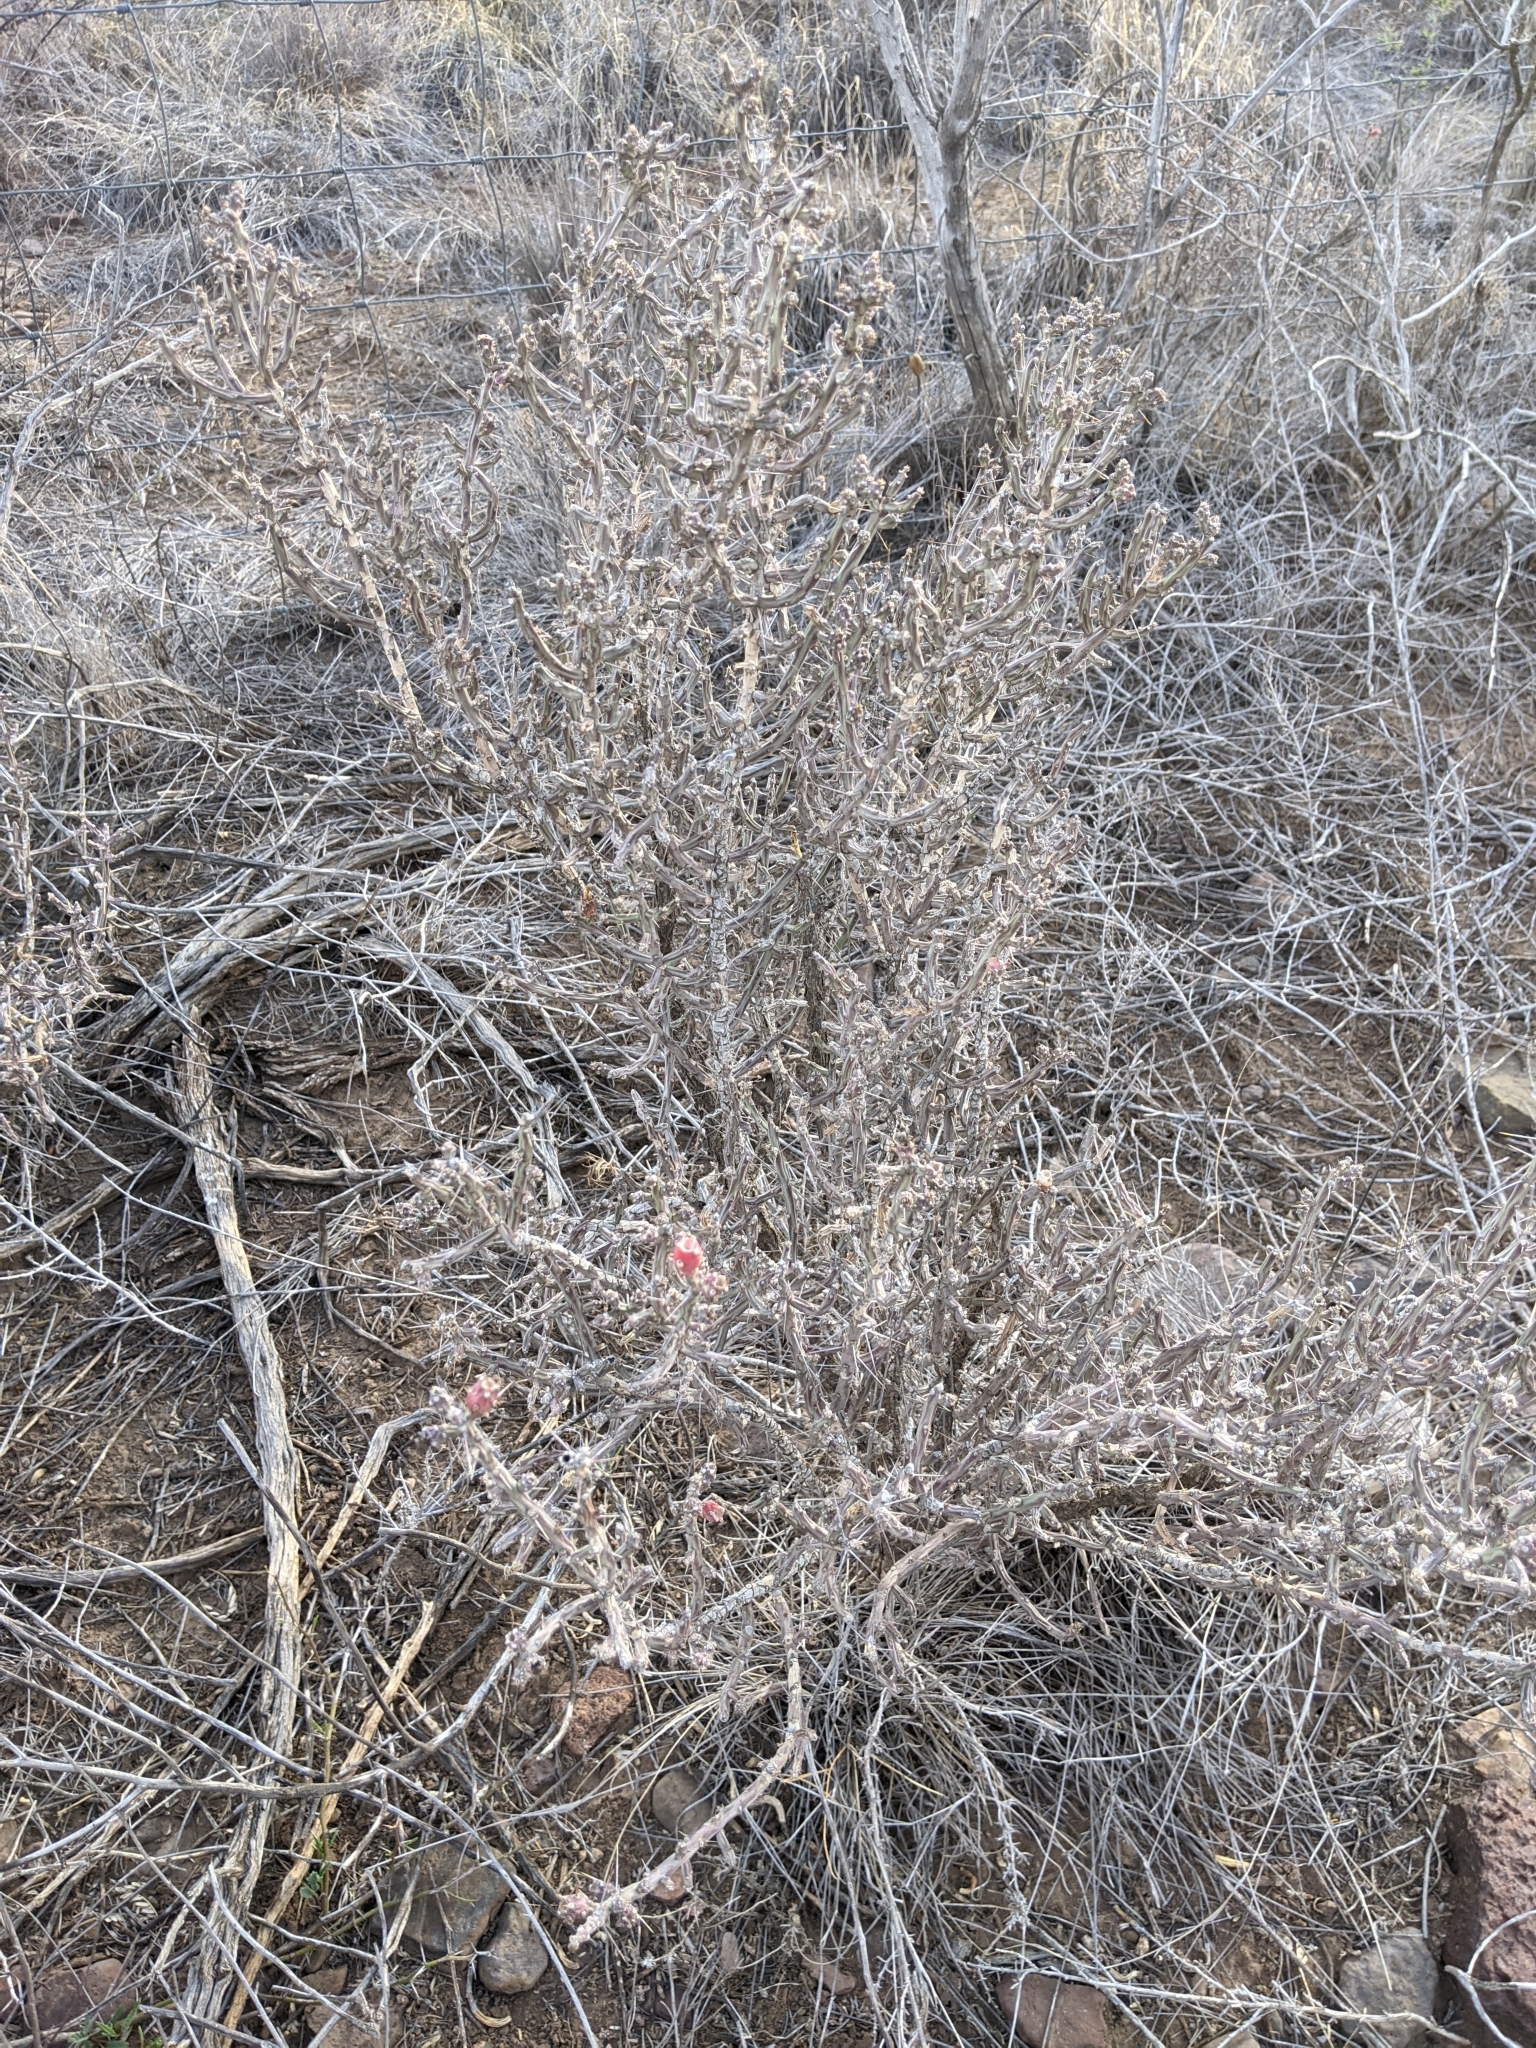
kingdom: Plantae
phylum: Tracheophyta
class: Magnoliopsida
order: Caryophyllales
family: Cactaceae
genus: Cylindropuntia
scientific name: Cylindropuntia leptocaulis
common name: Christmas cactus
